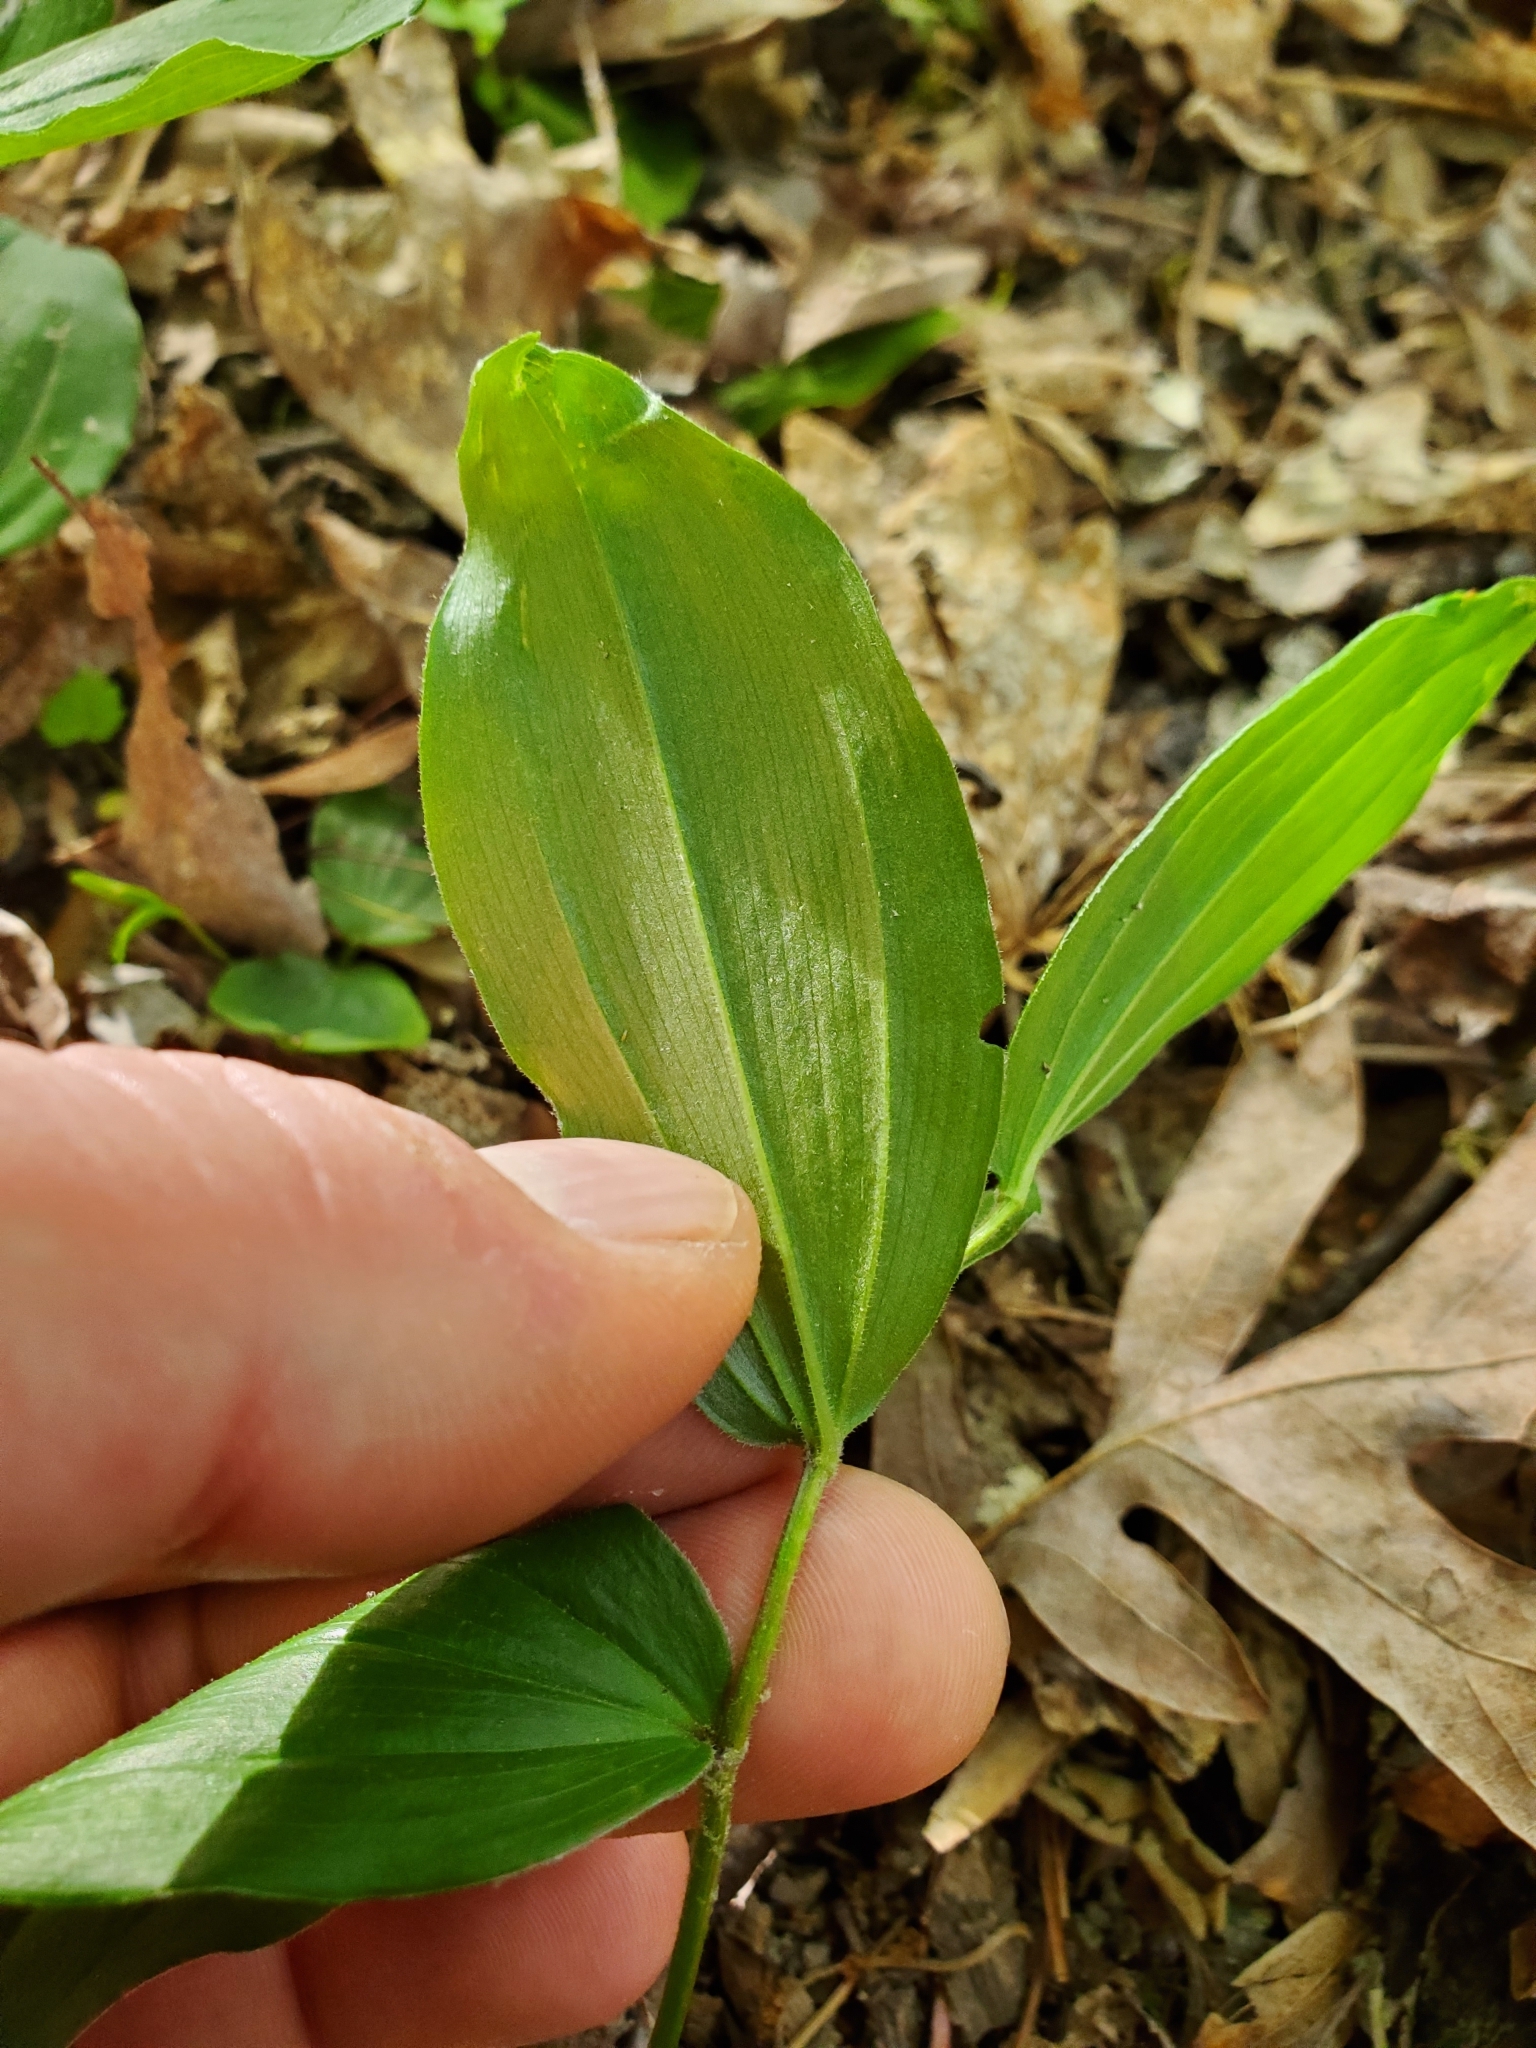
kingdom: Plantae
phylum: Tracheophyta
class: Liliopsida
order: Asparagales
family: Asparagaceae
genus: Maianthemum
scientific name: Maianthemum racemosum
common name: False spikenard
